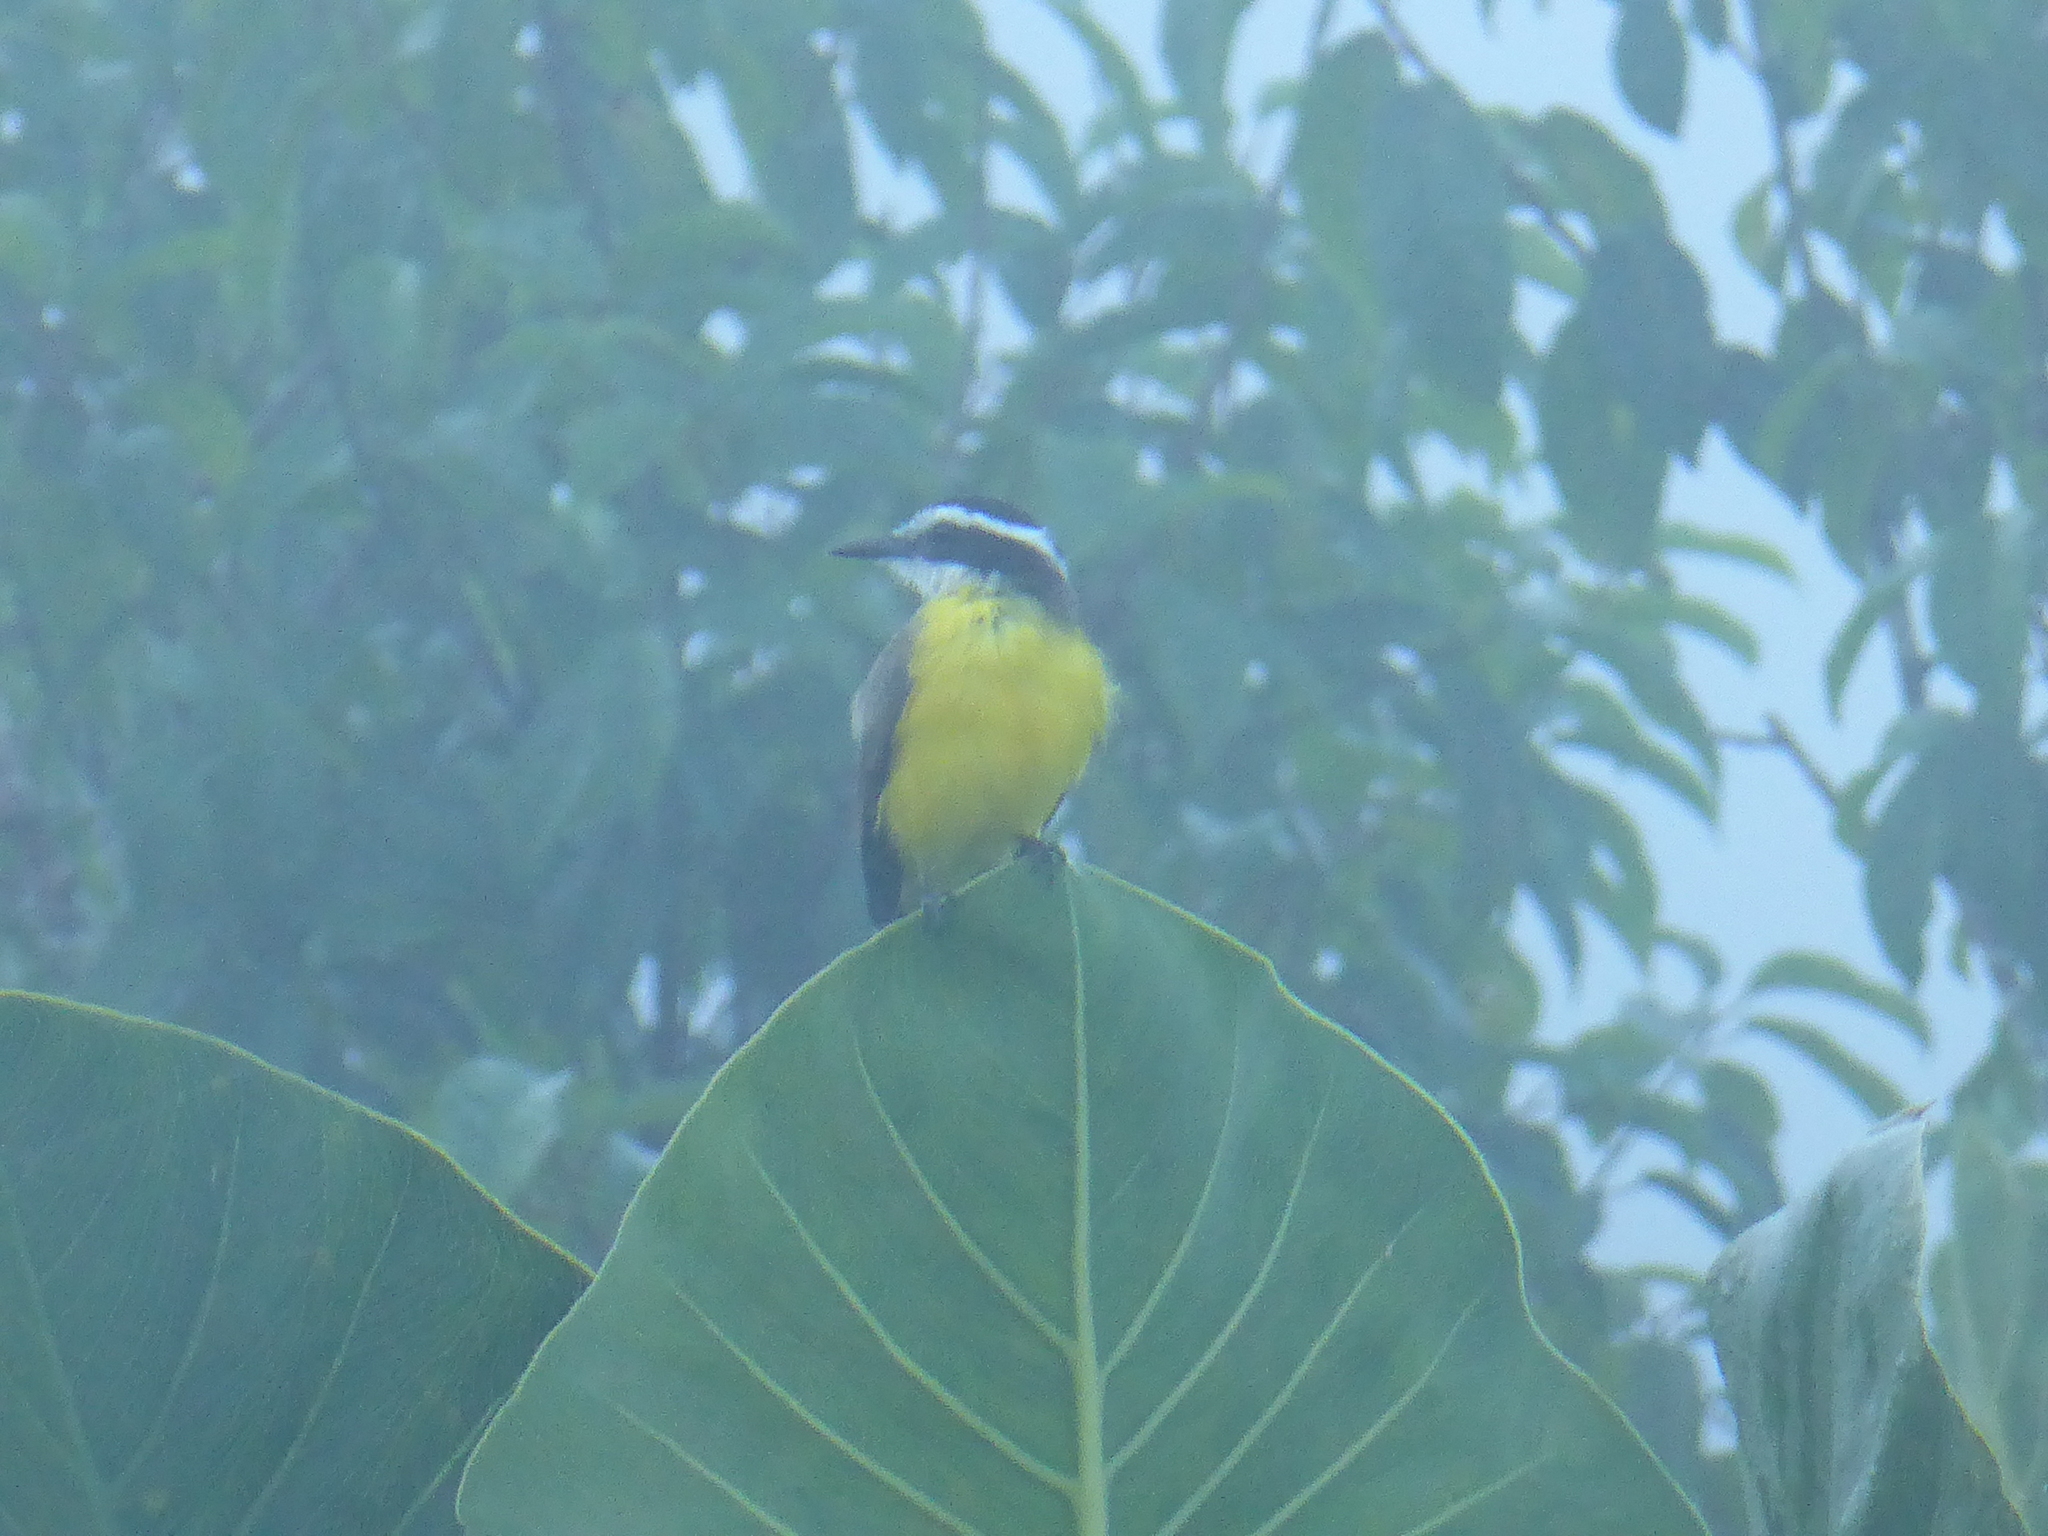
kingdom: Animalia
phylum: Chordata
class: Aves
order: Passeriformes
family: Tyrannidae
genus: Pitangus
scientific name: Pitangus lictor
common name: Lesser kiskadee
